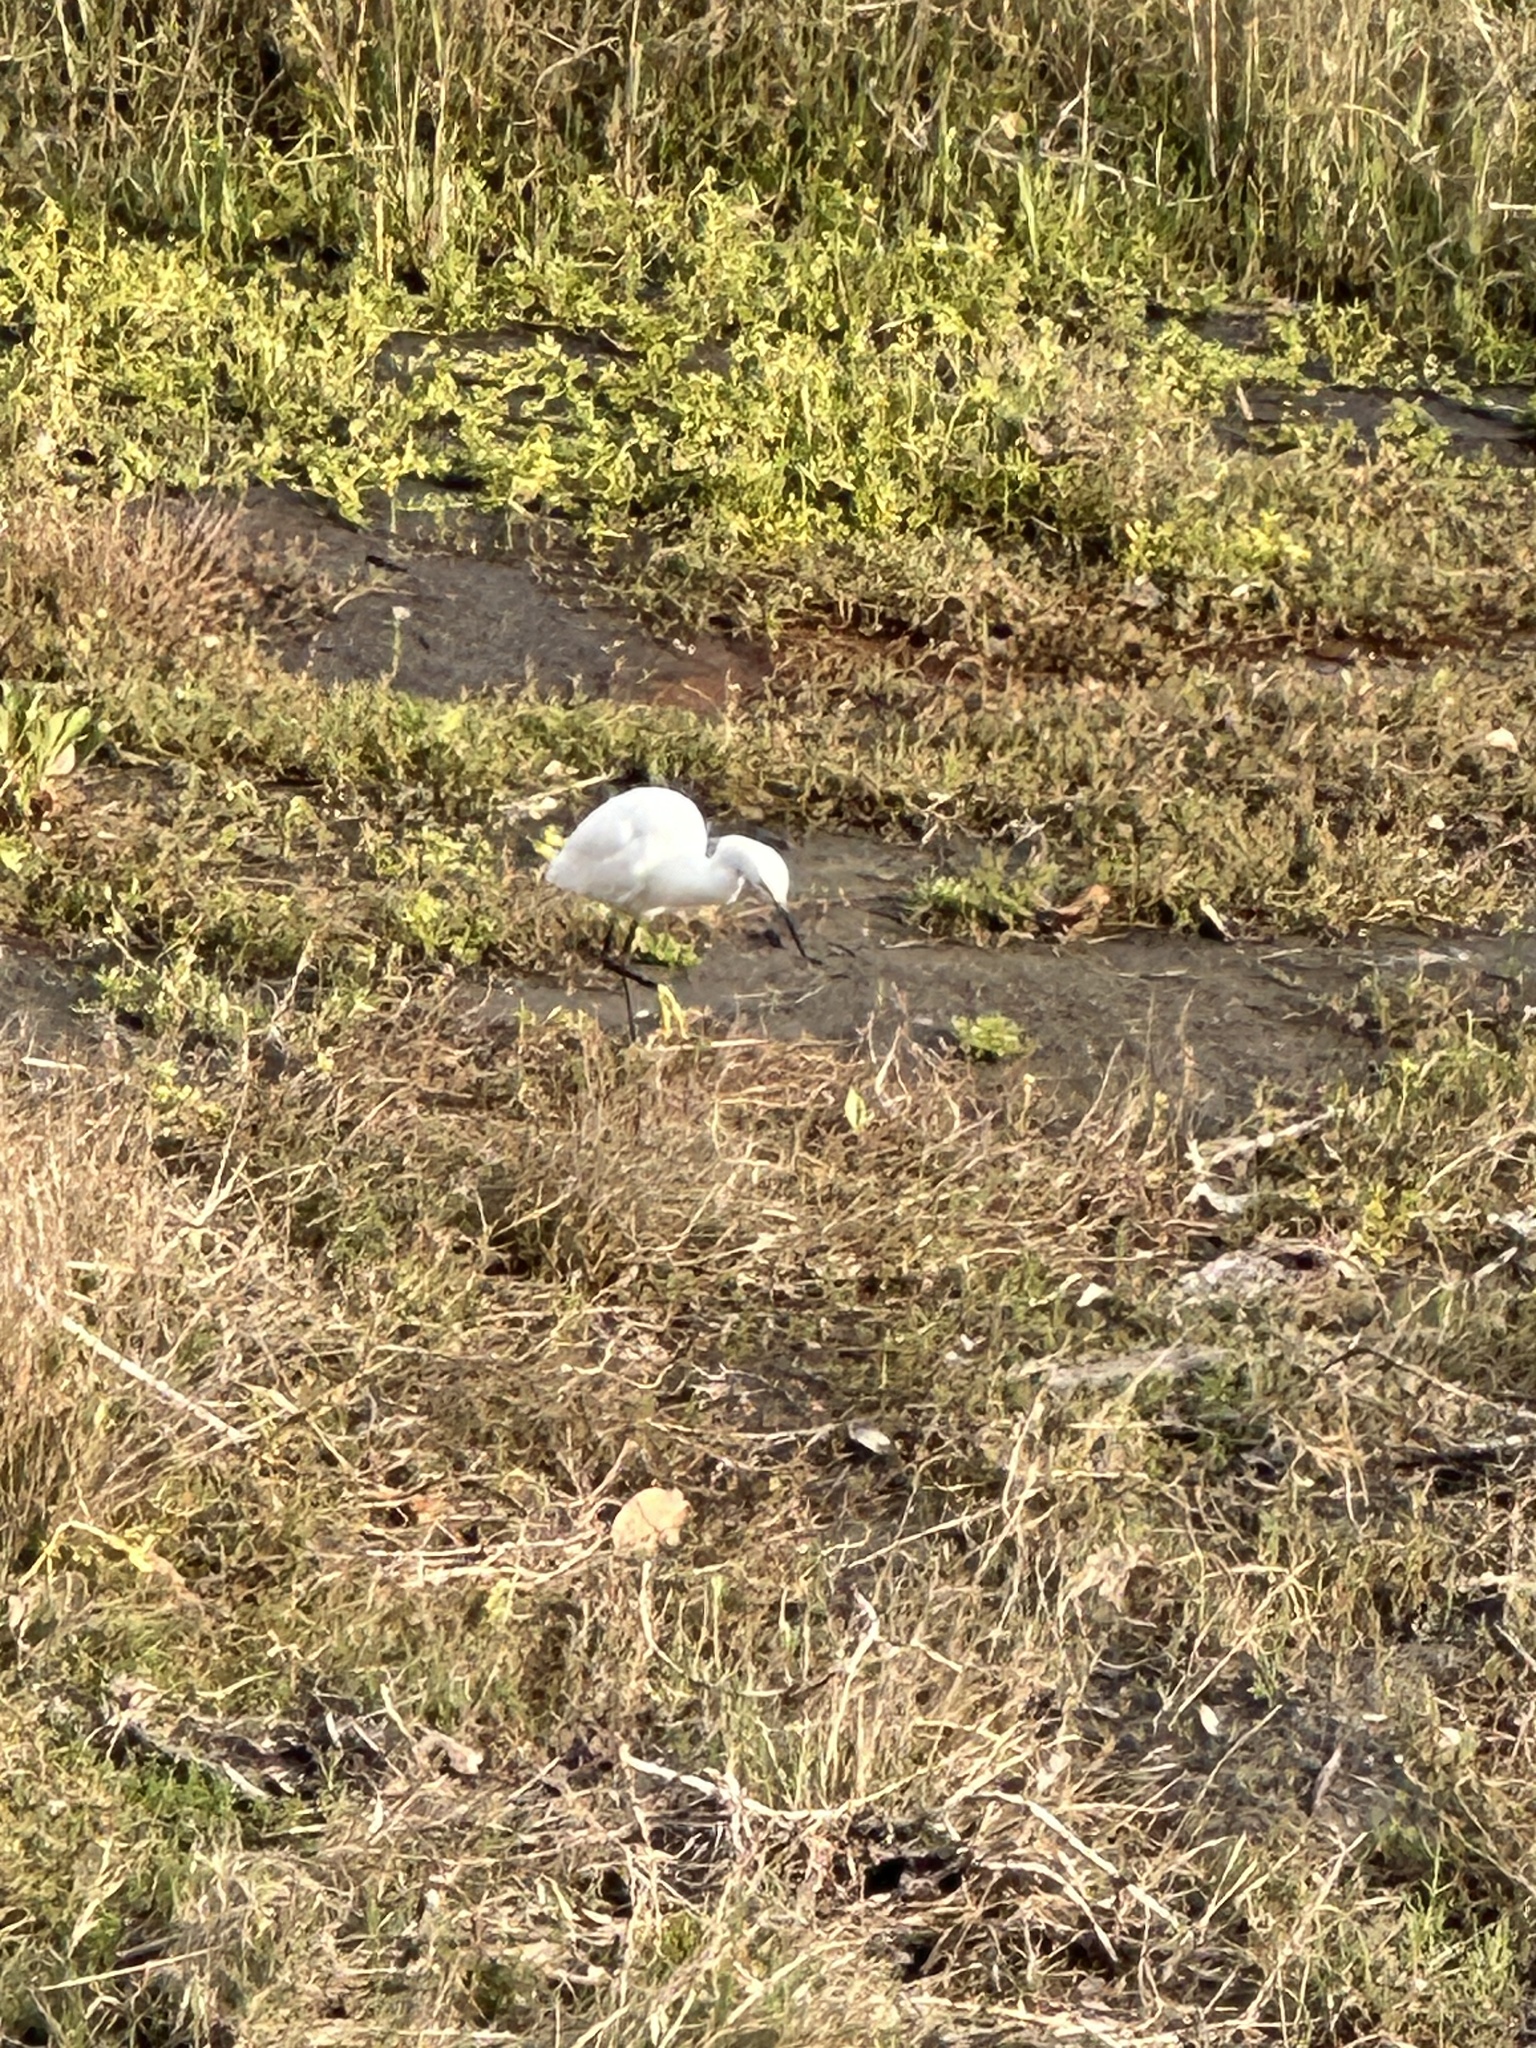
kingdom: Animalia
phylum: Chordata
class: Aves
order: Pelecaniformes
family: Ardeidae
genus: Egretta
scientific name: Egretta thula
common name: Snowy egret
